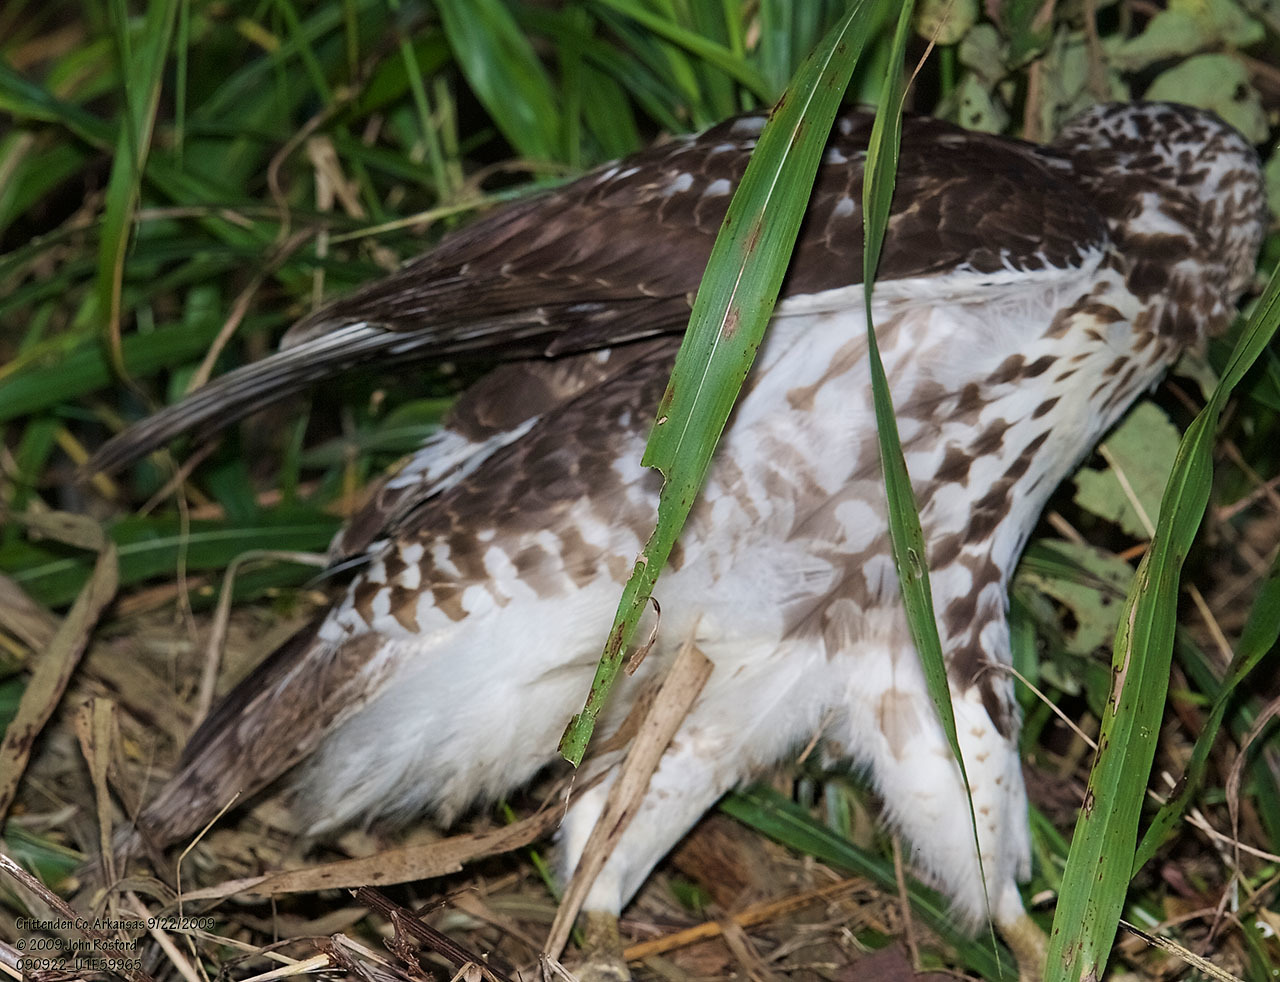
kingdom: Animalia
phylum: Chordata
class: Aves
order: Accipitriformes
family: Accipitridae
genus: Buteo
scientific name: Buteo jamaicensis
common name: Red-tailed hawk
